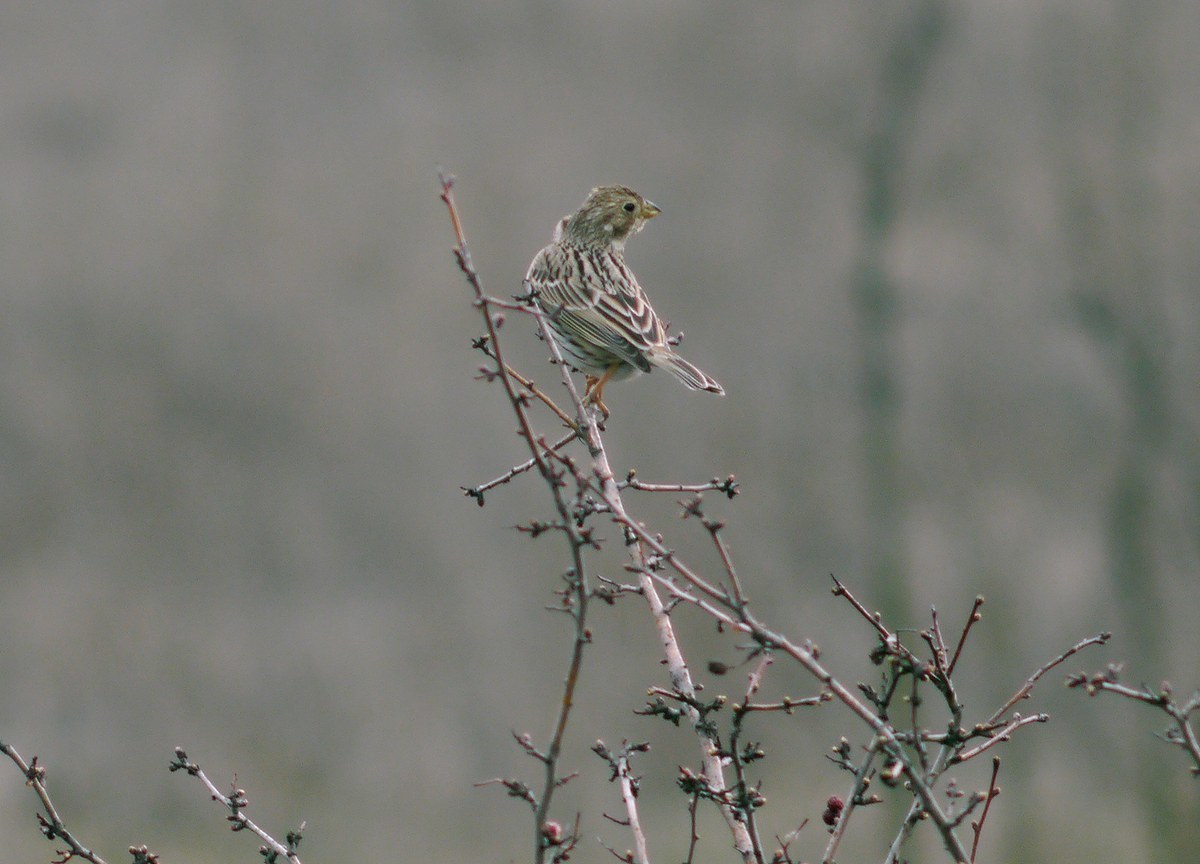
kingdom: Animalia
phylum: Chordata
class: Aves
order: Passeriformes
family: Emberizidae
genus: Emberiza
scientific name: Emberiza calandra
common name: Corn bunting
